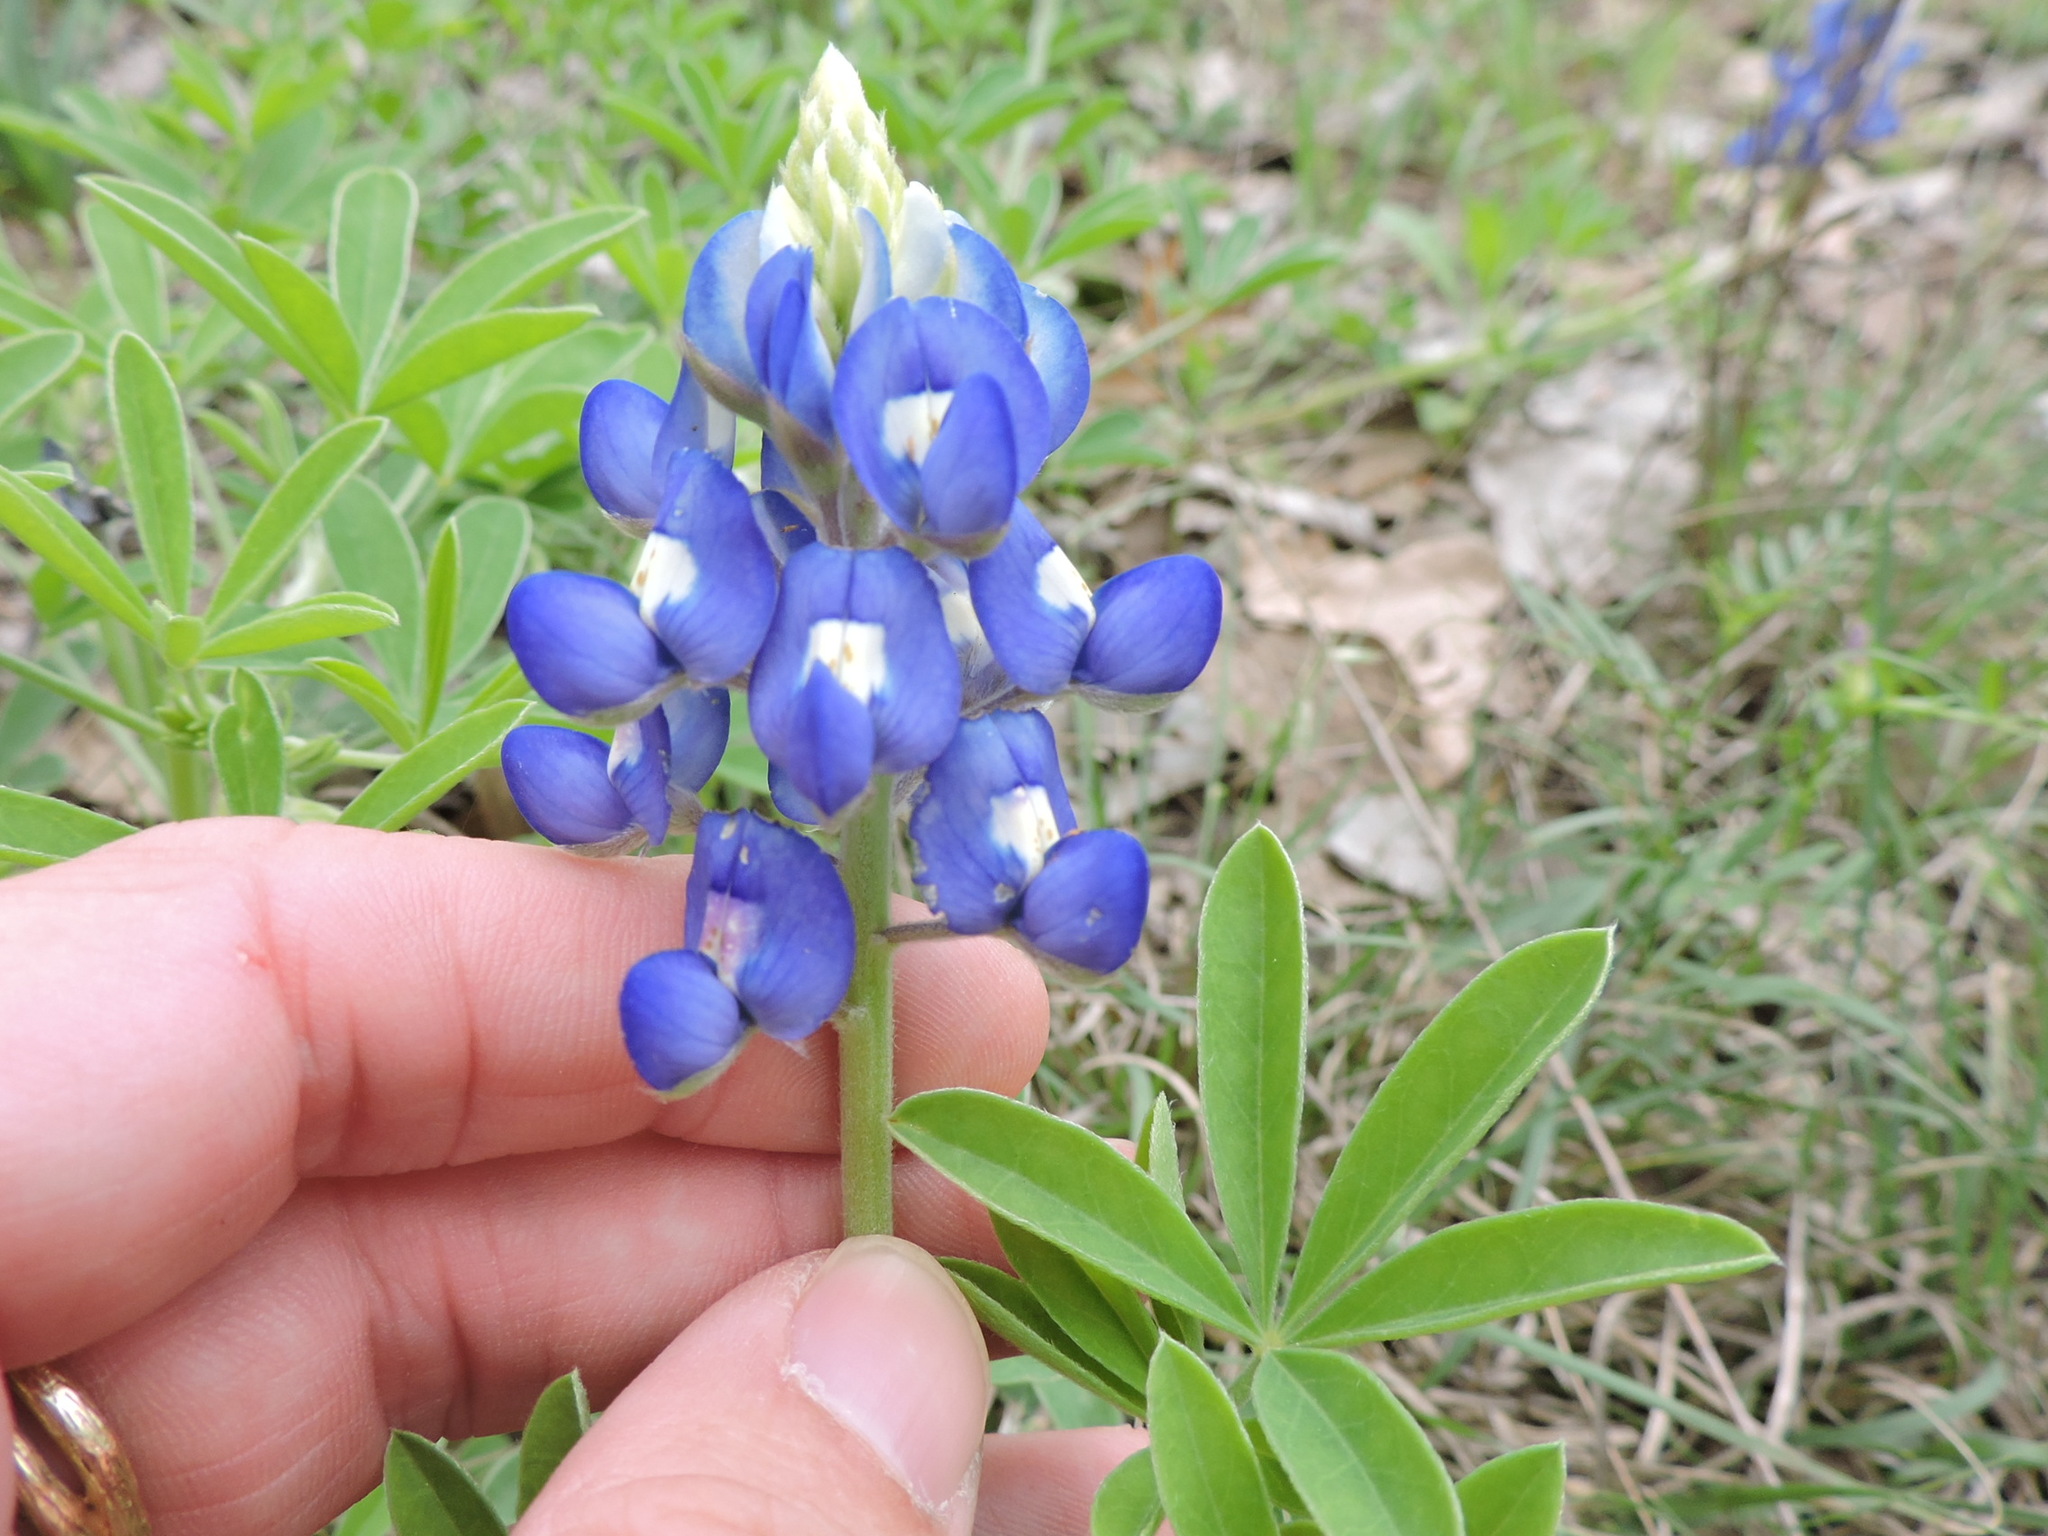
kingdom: Plantae
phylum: Tracheophyta
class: Magnoliopsida
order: Fabales
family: Fabaceae
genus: Lupinus
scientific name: Lupinus texensis
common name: Texas bluebonnet
